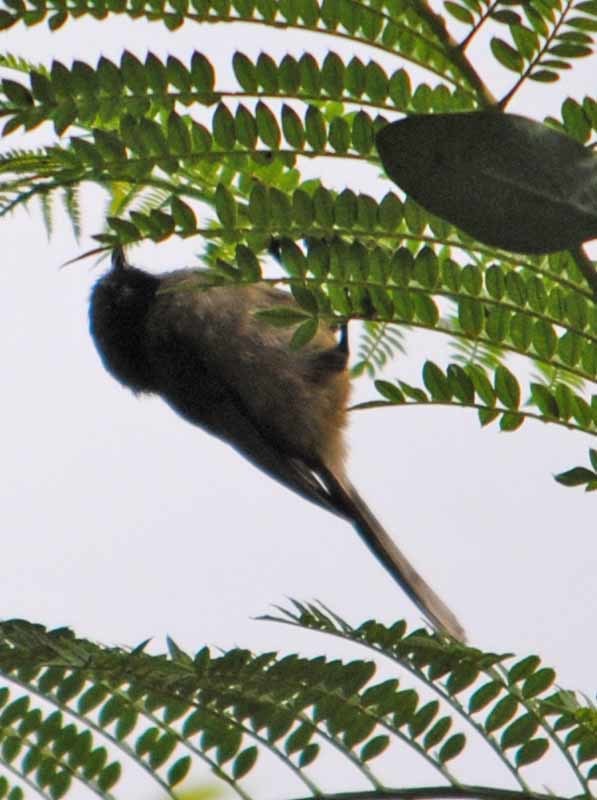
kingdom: Animalia
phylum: Chordata
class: Aves
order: Passeriformes
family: Aegithalidae
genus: Psaltriparus
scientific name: Psaltriparus minimus
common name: American bushtit
